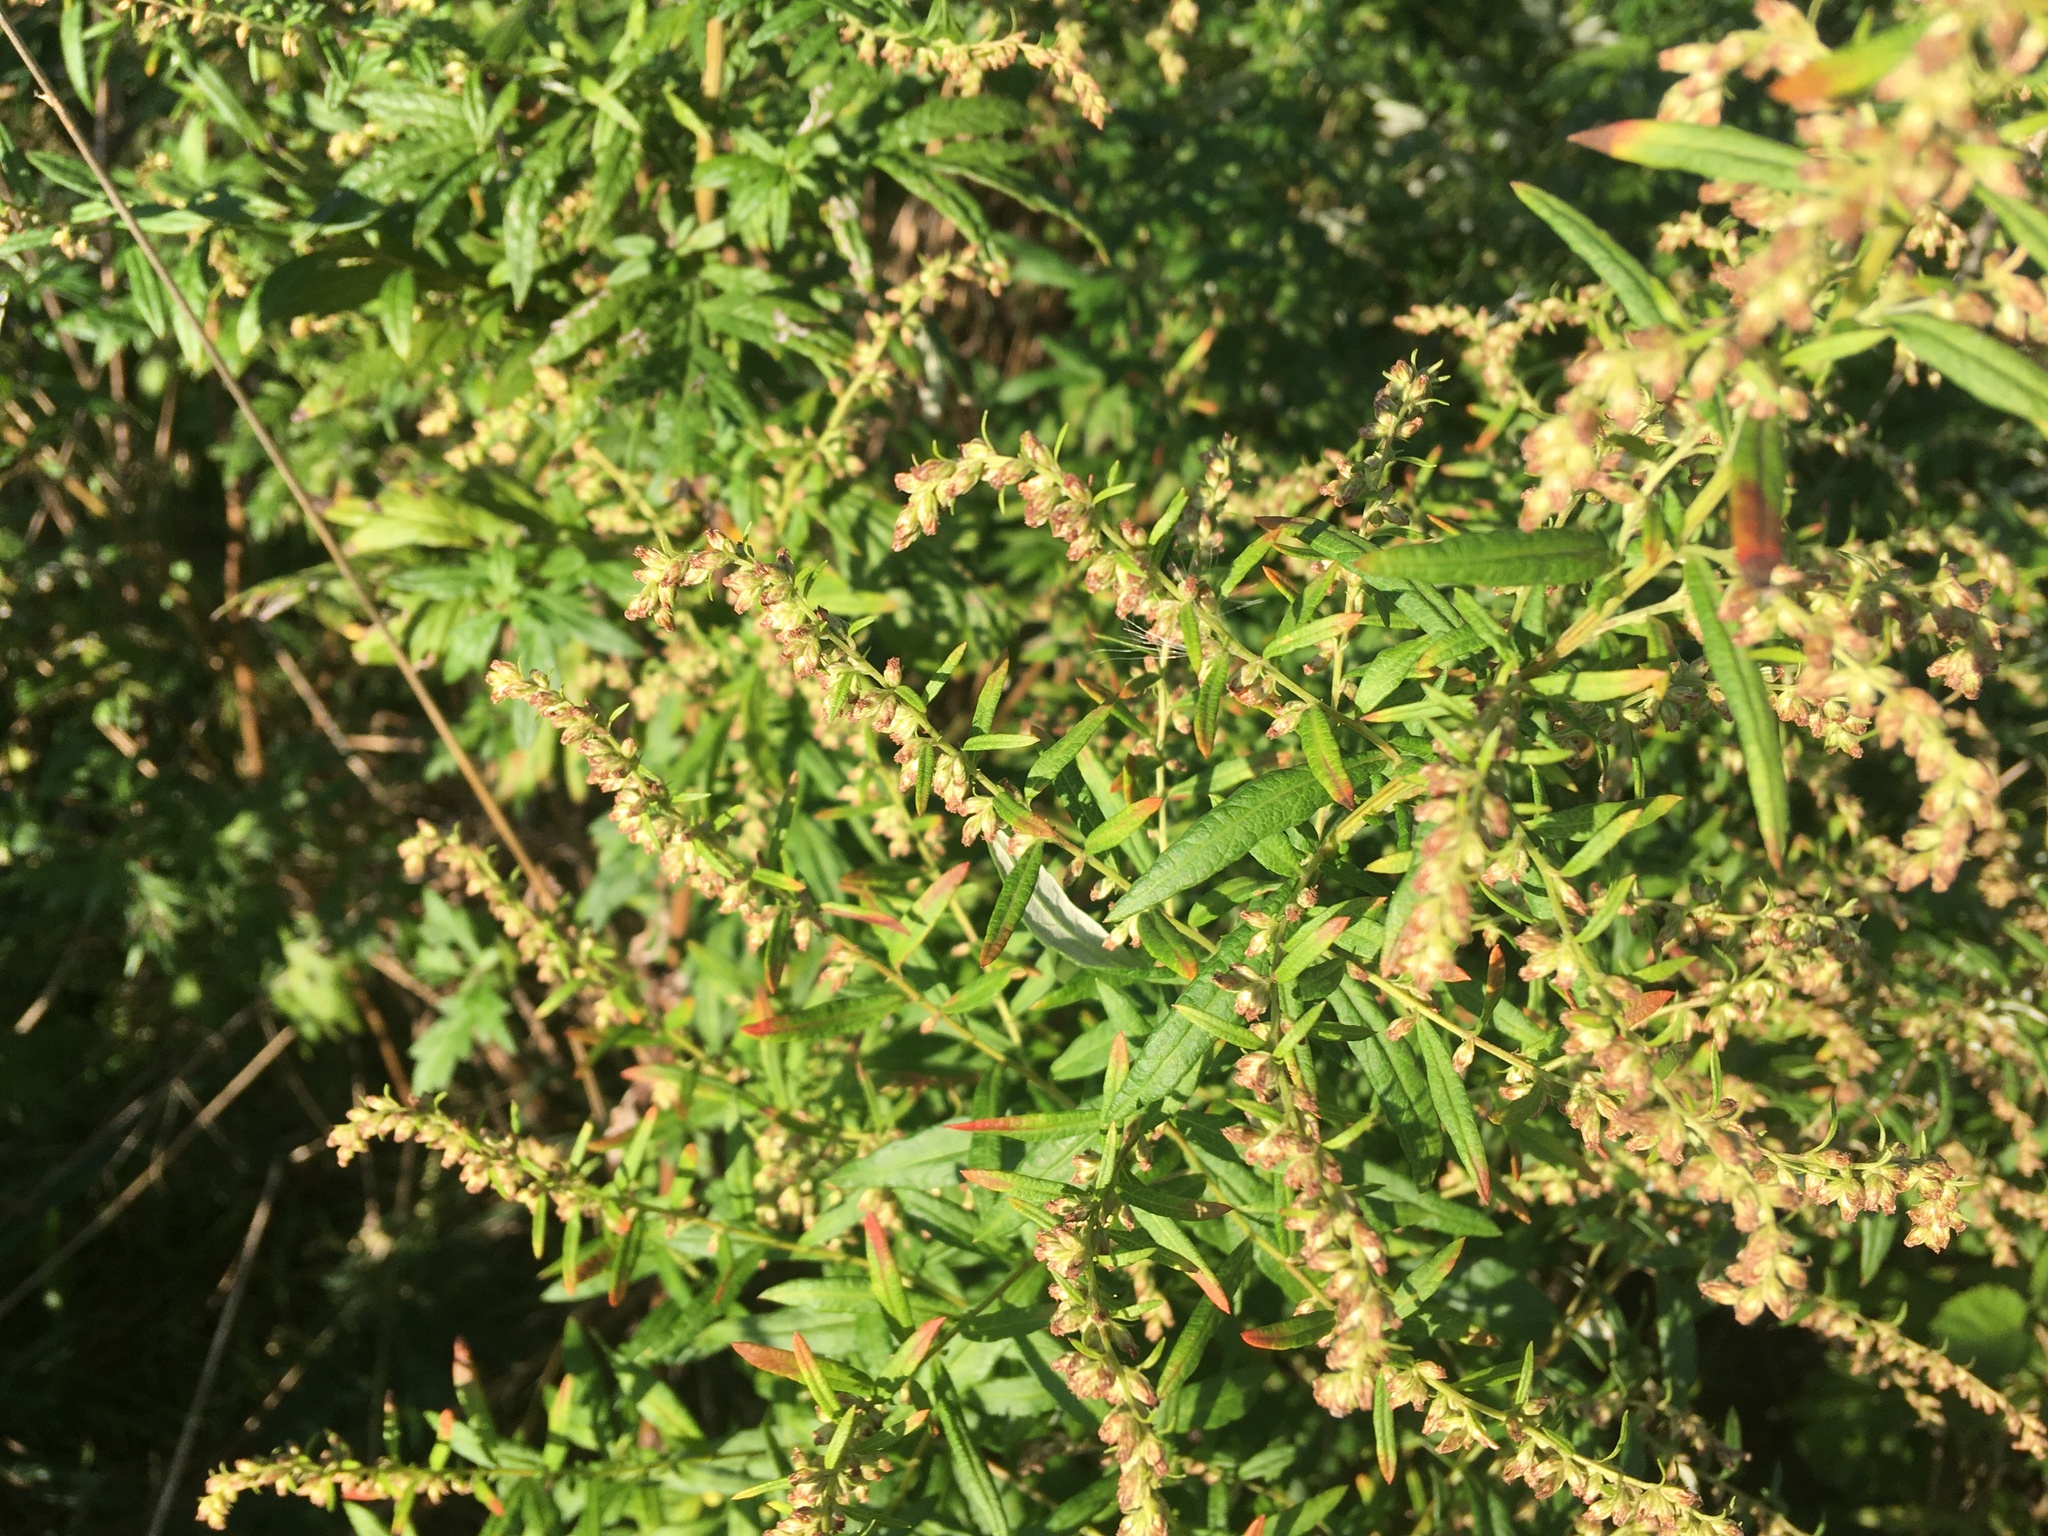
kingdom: Plantae
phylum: Tracheophyta
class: Magnoliopsida
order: Asterales
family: Asteraceae
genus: Artemisia
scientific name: Artemisia vulgaris
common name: Mugwort
